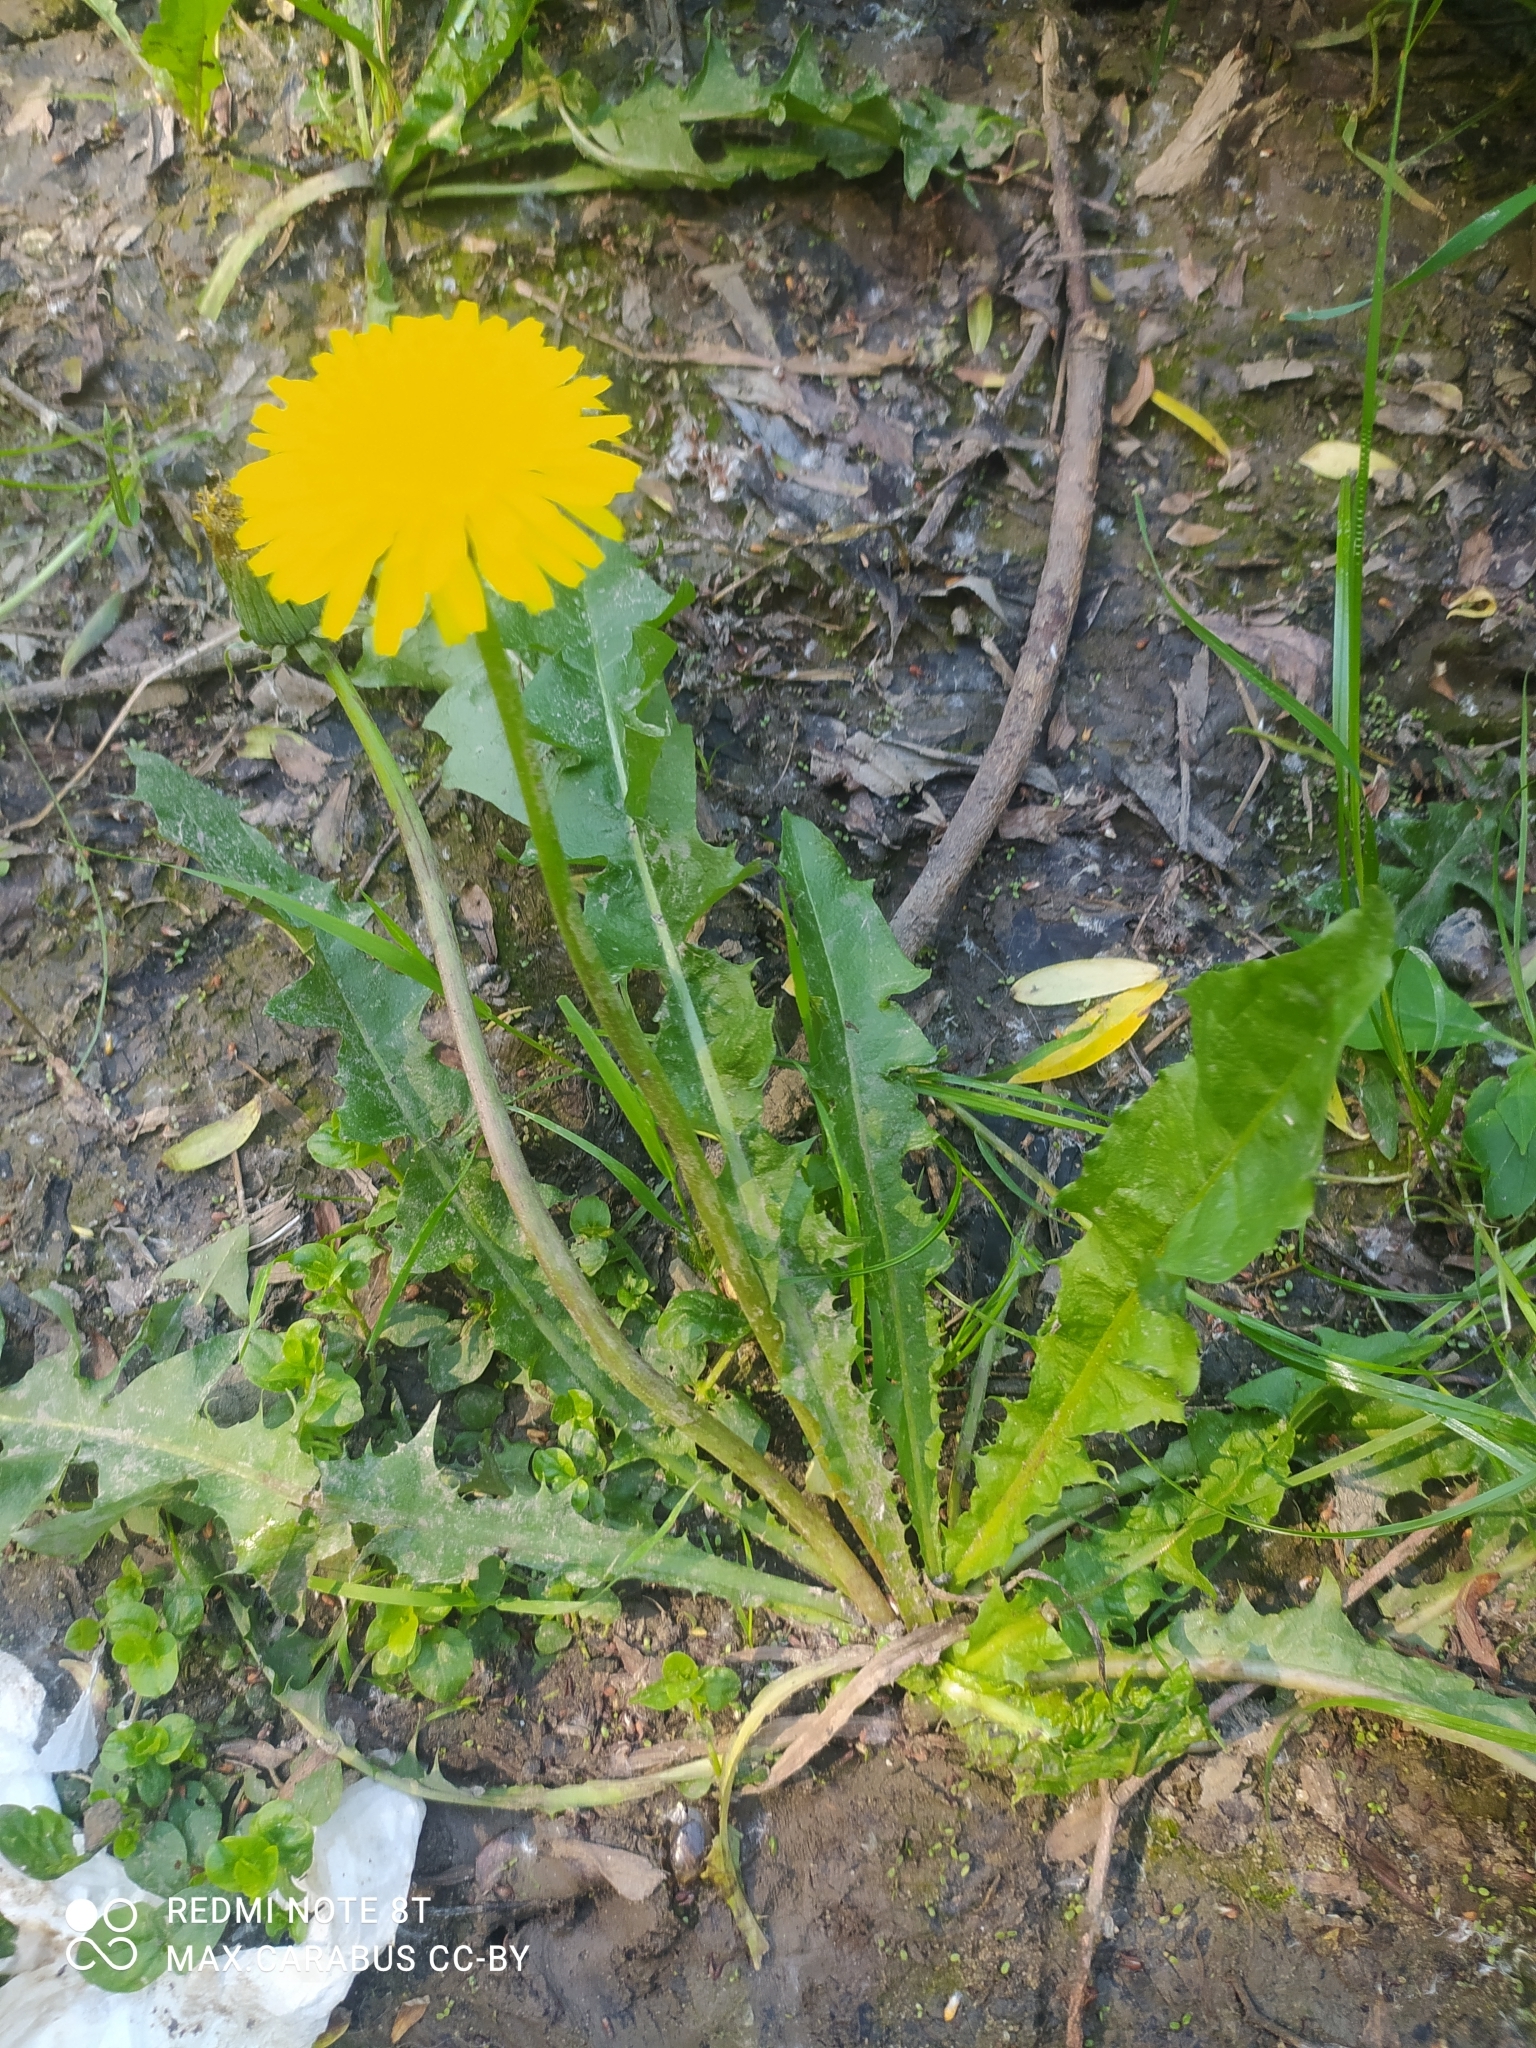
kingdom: Plantae
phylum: Tracheophyta
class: Magnoliopsida
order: Asterales
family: Asteraceae
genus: Taraxacum
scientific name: Taraxacum officinale
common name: Common dandelion
